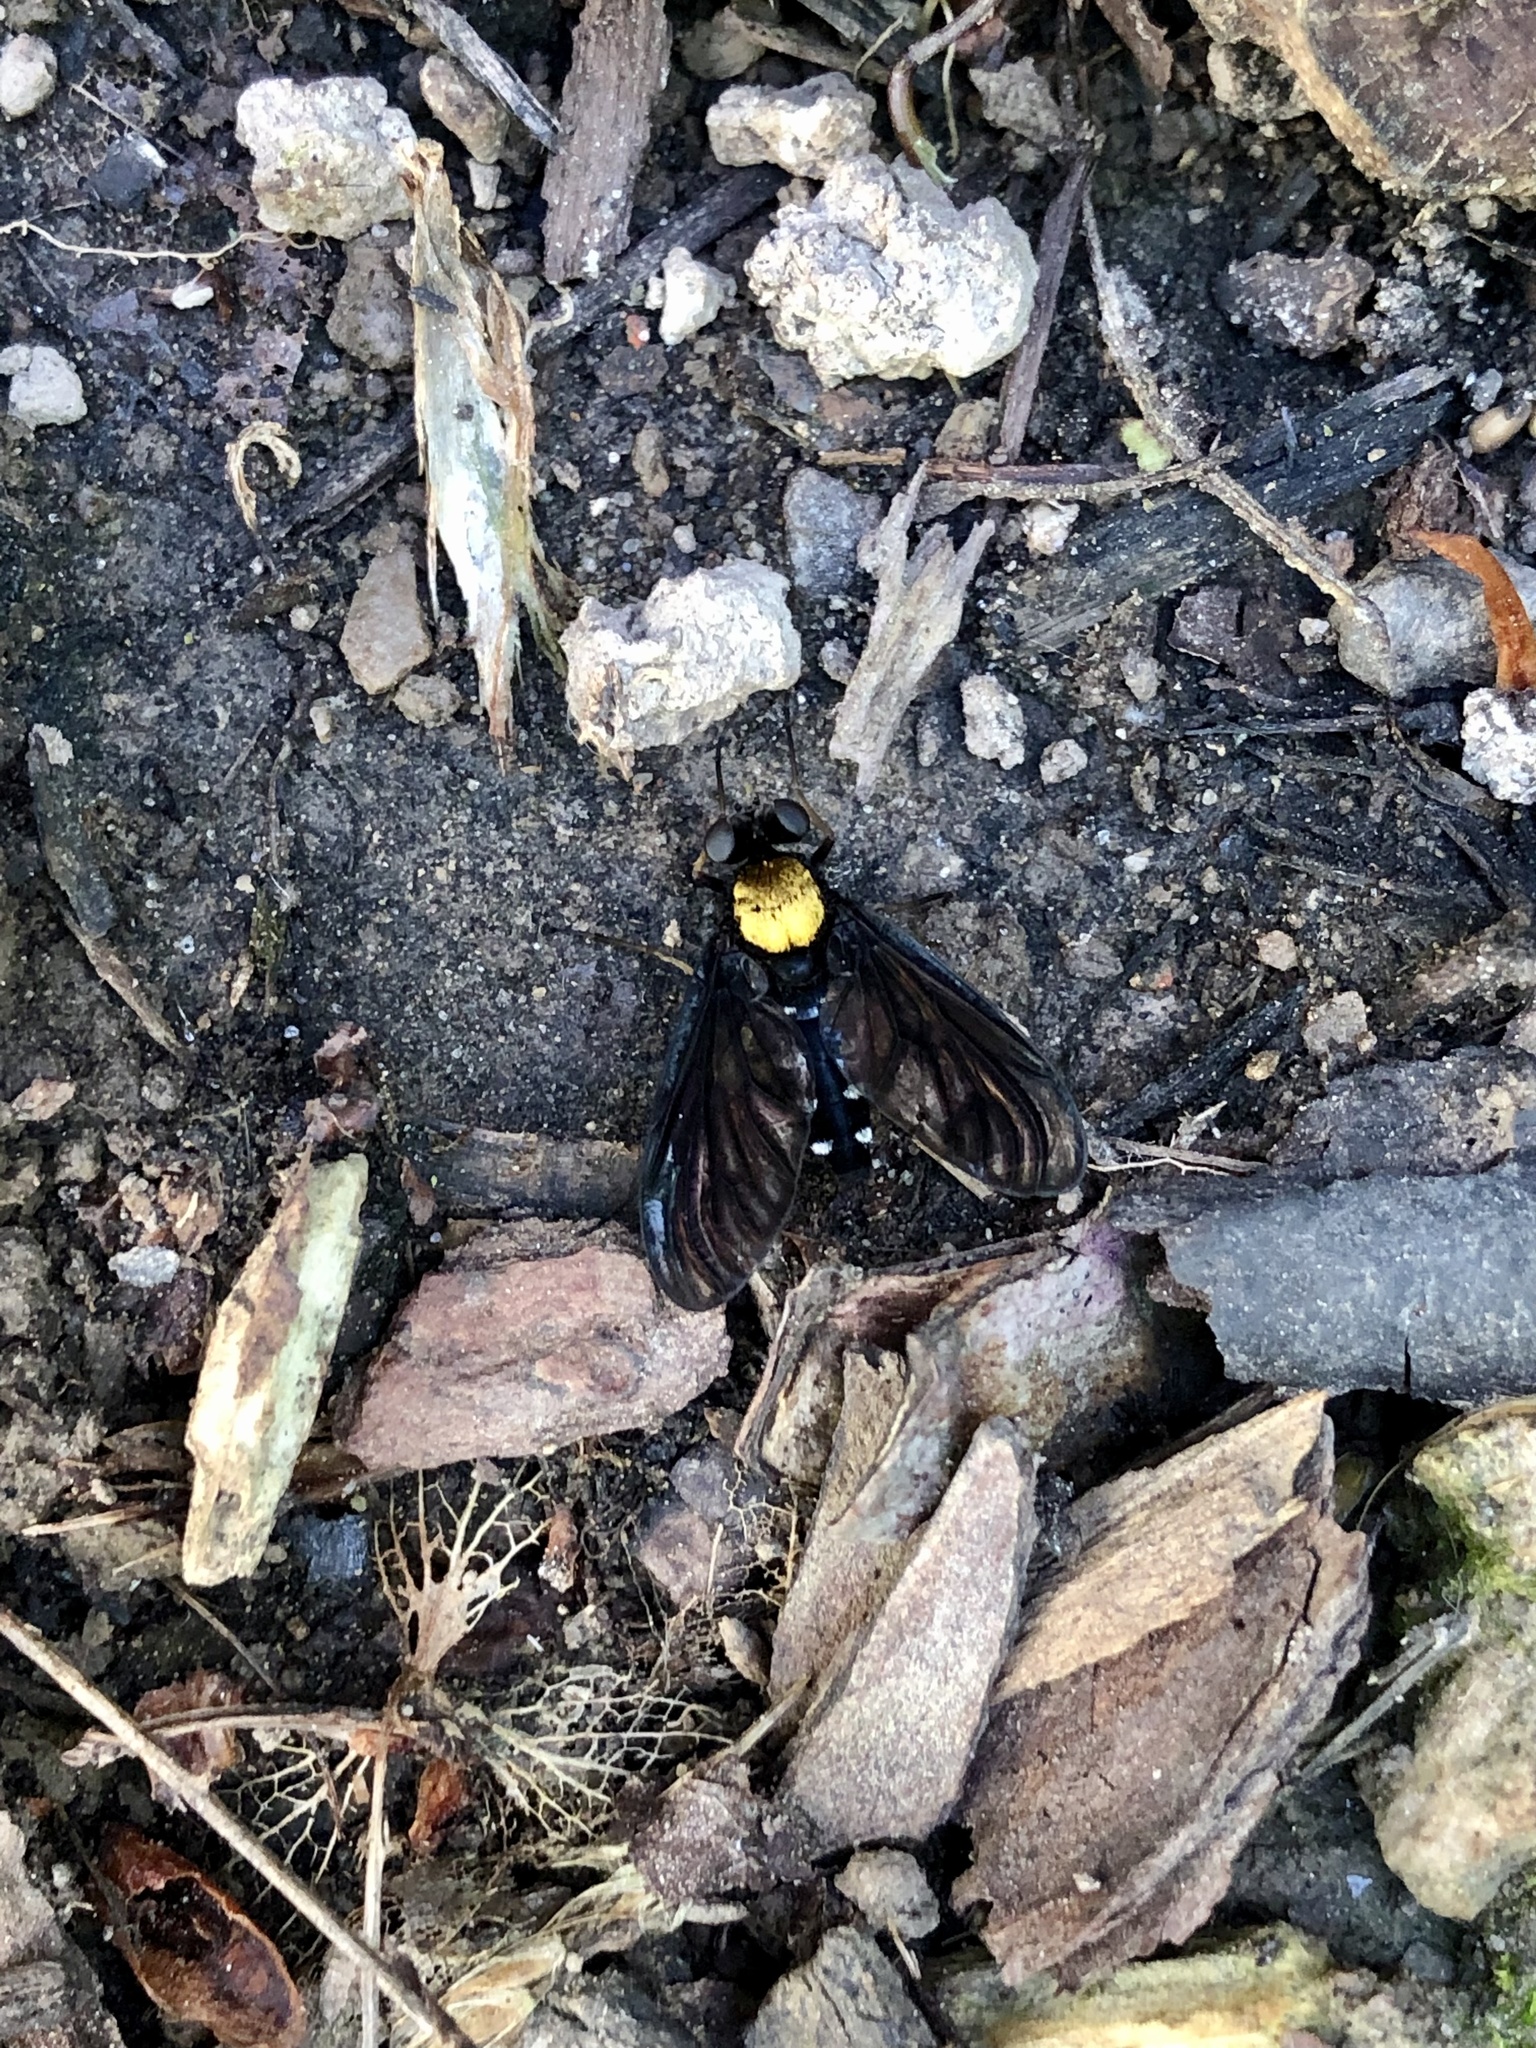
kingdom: Animalia
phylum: Arthropoda
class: Insecta
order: Diptera
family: Rhagionidae
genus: Chrysopilus
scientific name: Chrysopilus thoracicus
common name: Golden-backed snipe fly
